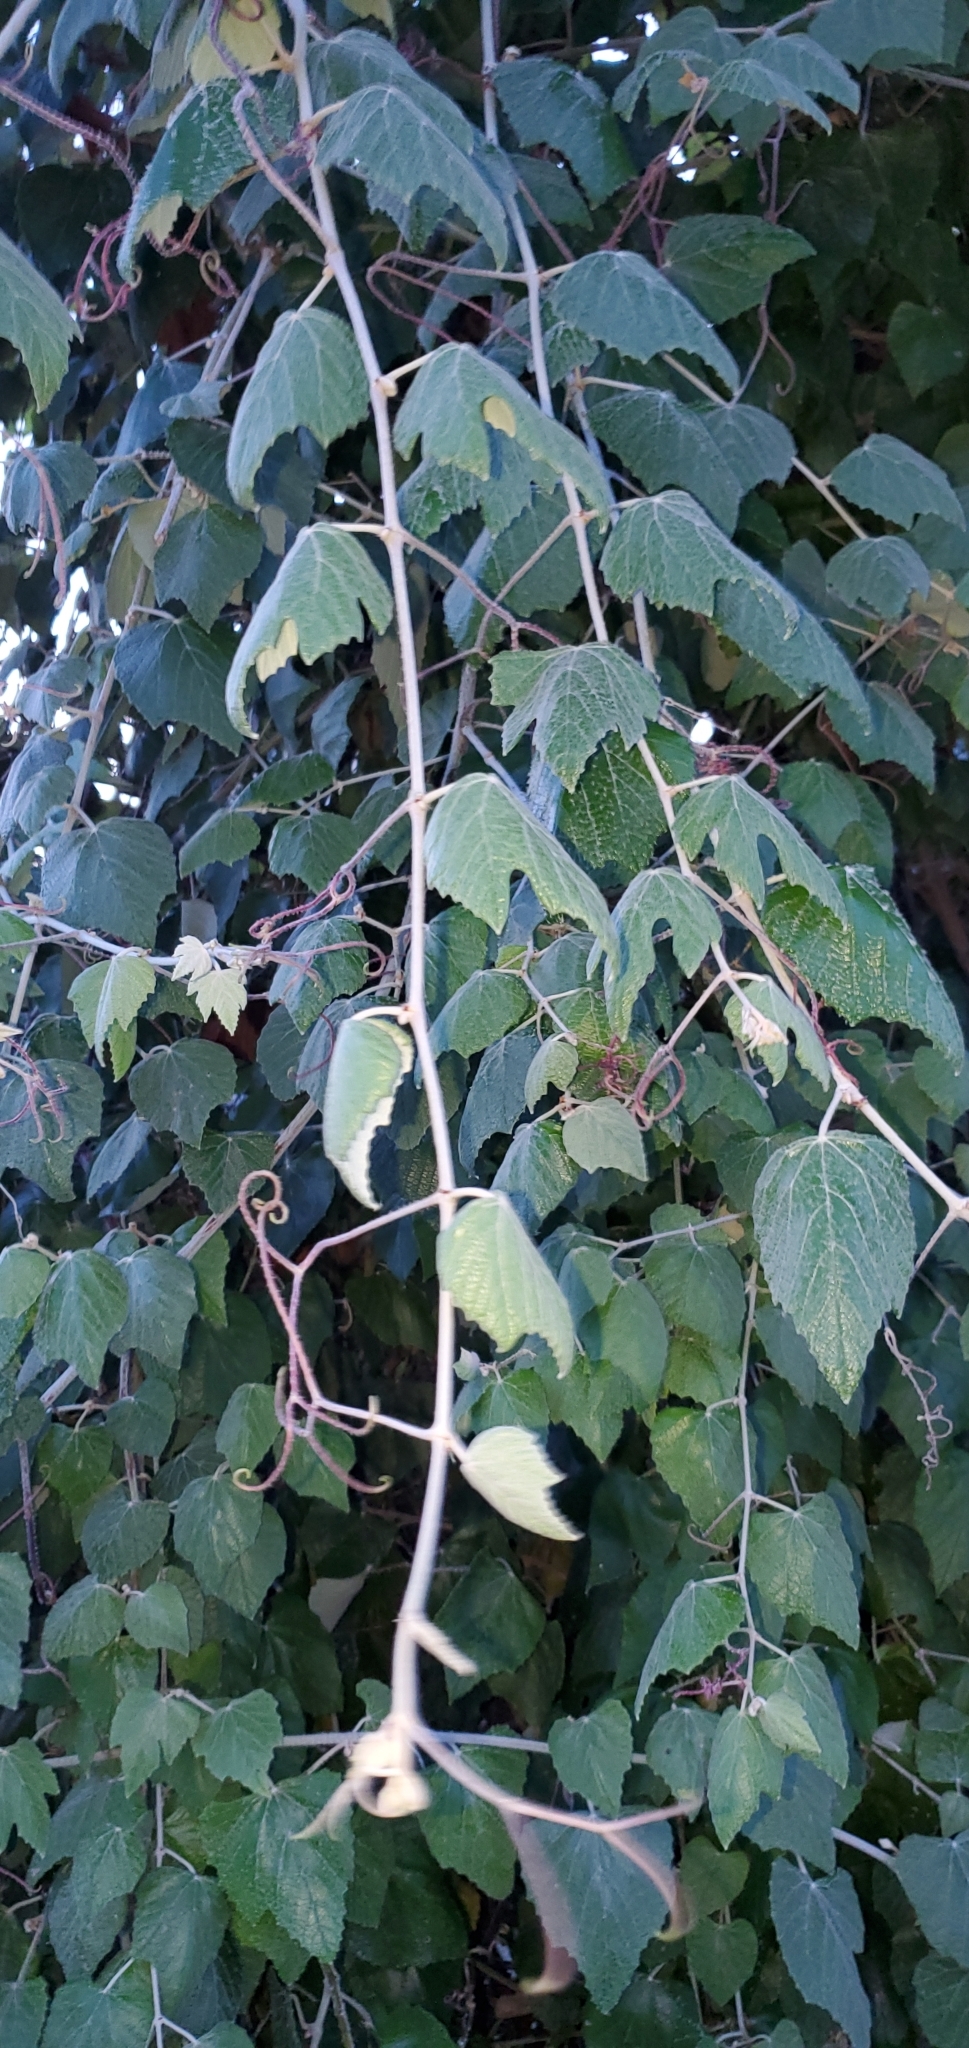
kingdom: Plantae
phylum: Tracheophyta
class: Magnoliopsida
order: Vitales
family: Vitaceae
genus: Vitis
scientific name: Vitis mustangensis
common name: Mustang grape
